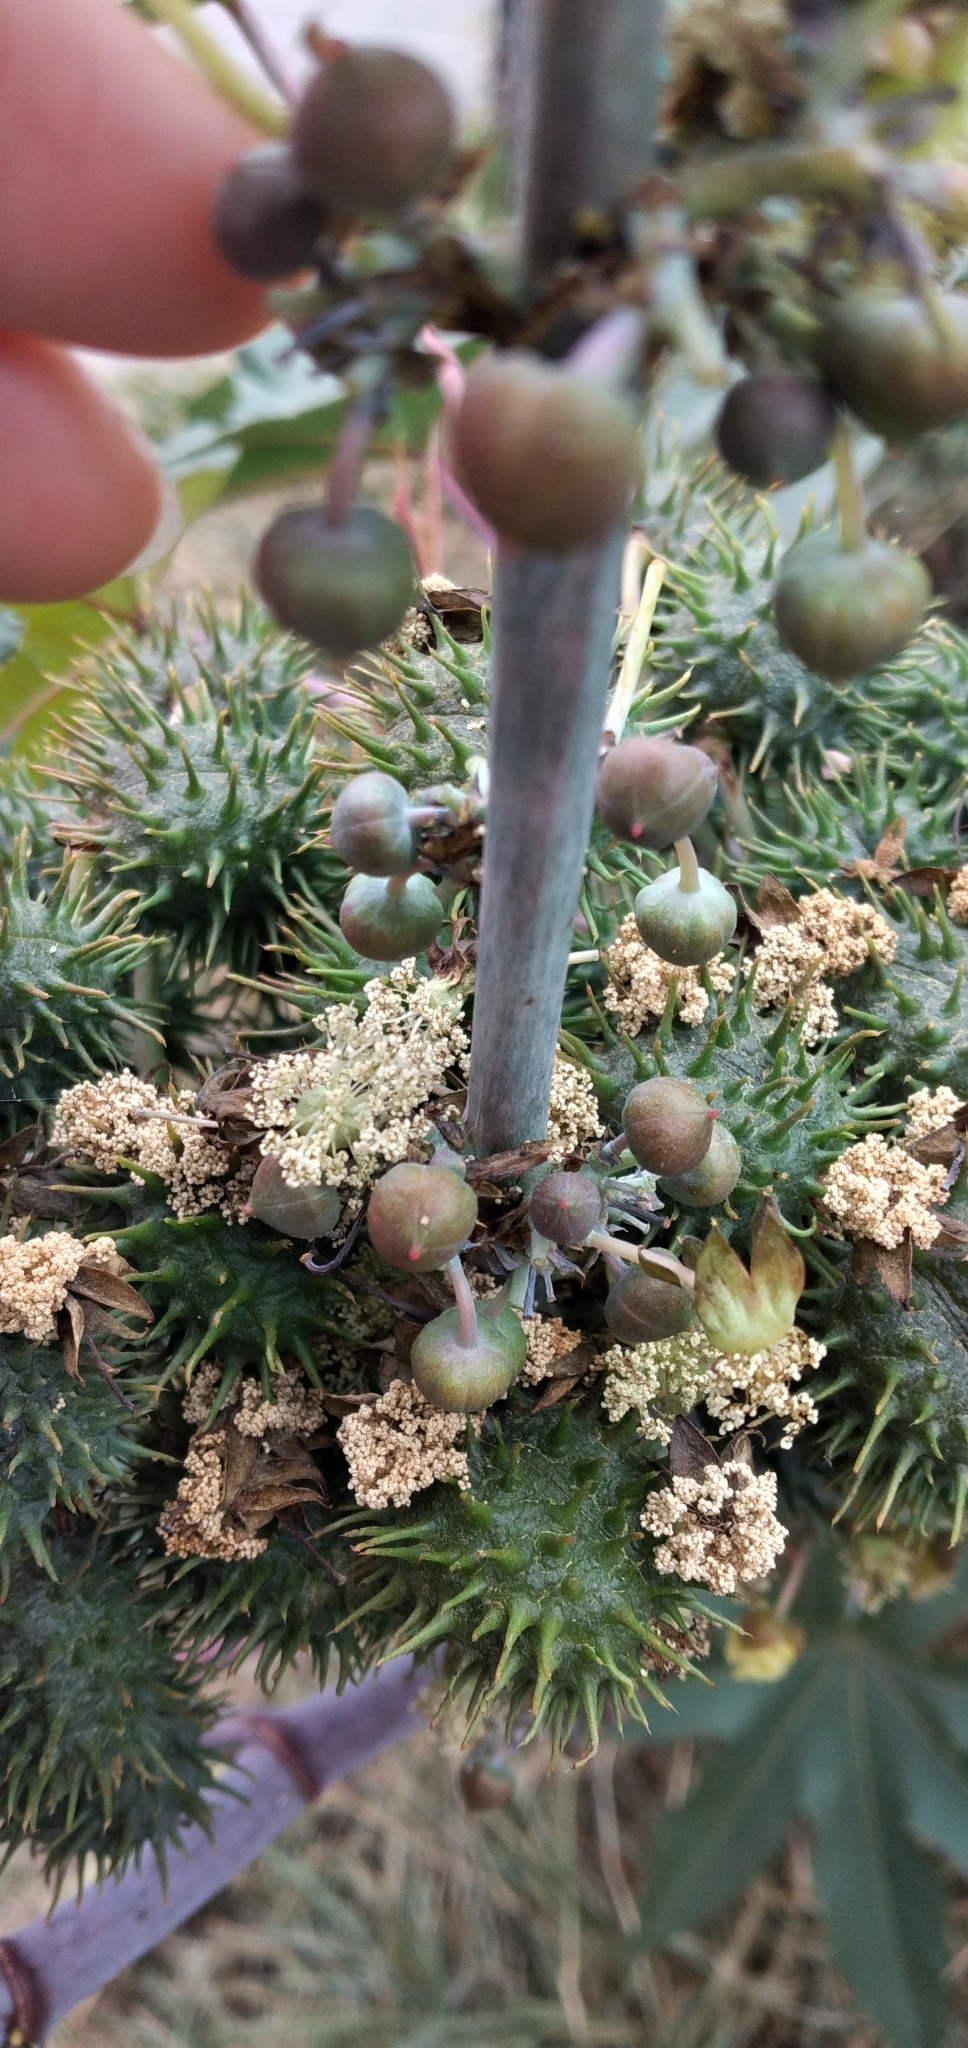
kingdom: Plantae
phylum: Tracheophyta
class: Magnoliopsida
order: Malpighiales
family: Euphorbiaceae
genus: Ricinus
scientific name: Ricinus communis
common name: Castor-oil-plant
